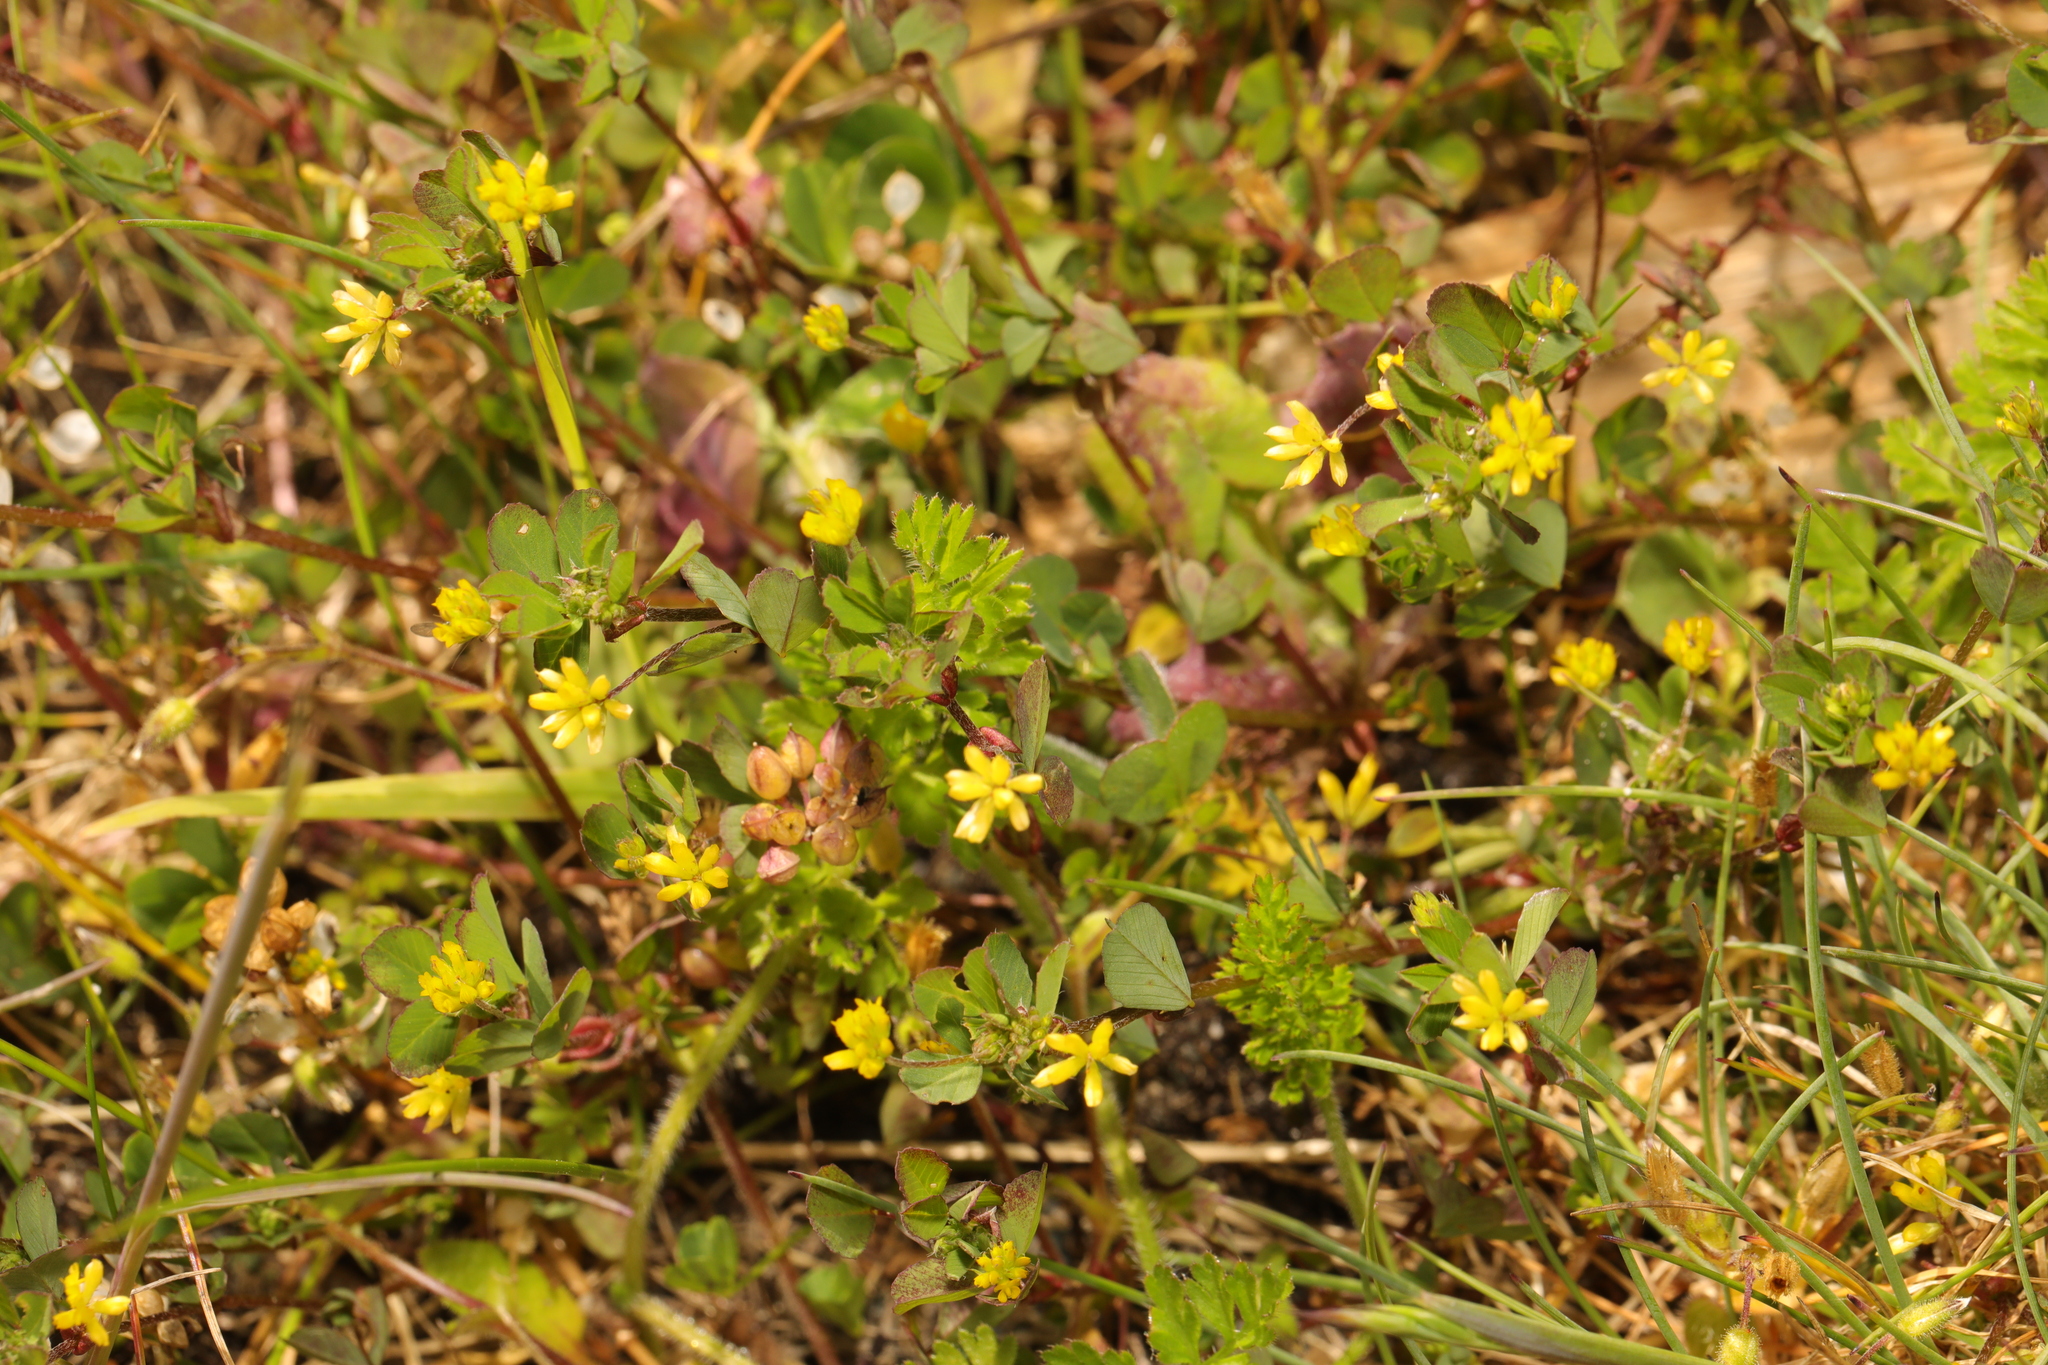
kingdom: Plantae
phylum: Tracheophyta
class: Magnoliopsida
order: Fabales
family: Fabaceae
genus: Trifolium
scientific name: Trifolium dubium
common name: Suckling clover
